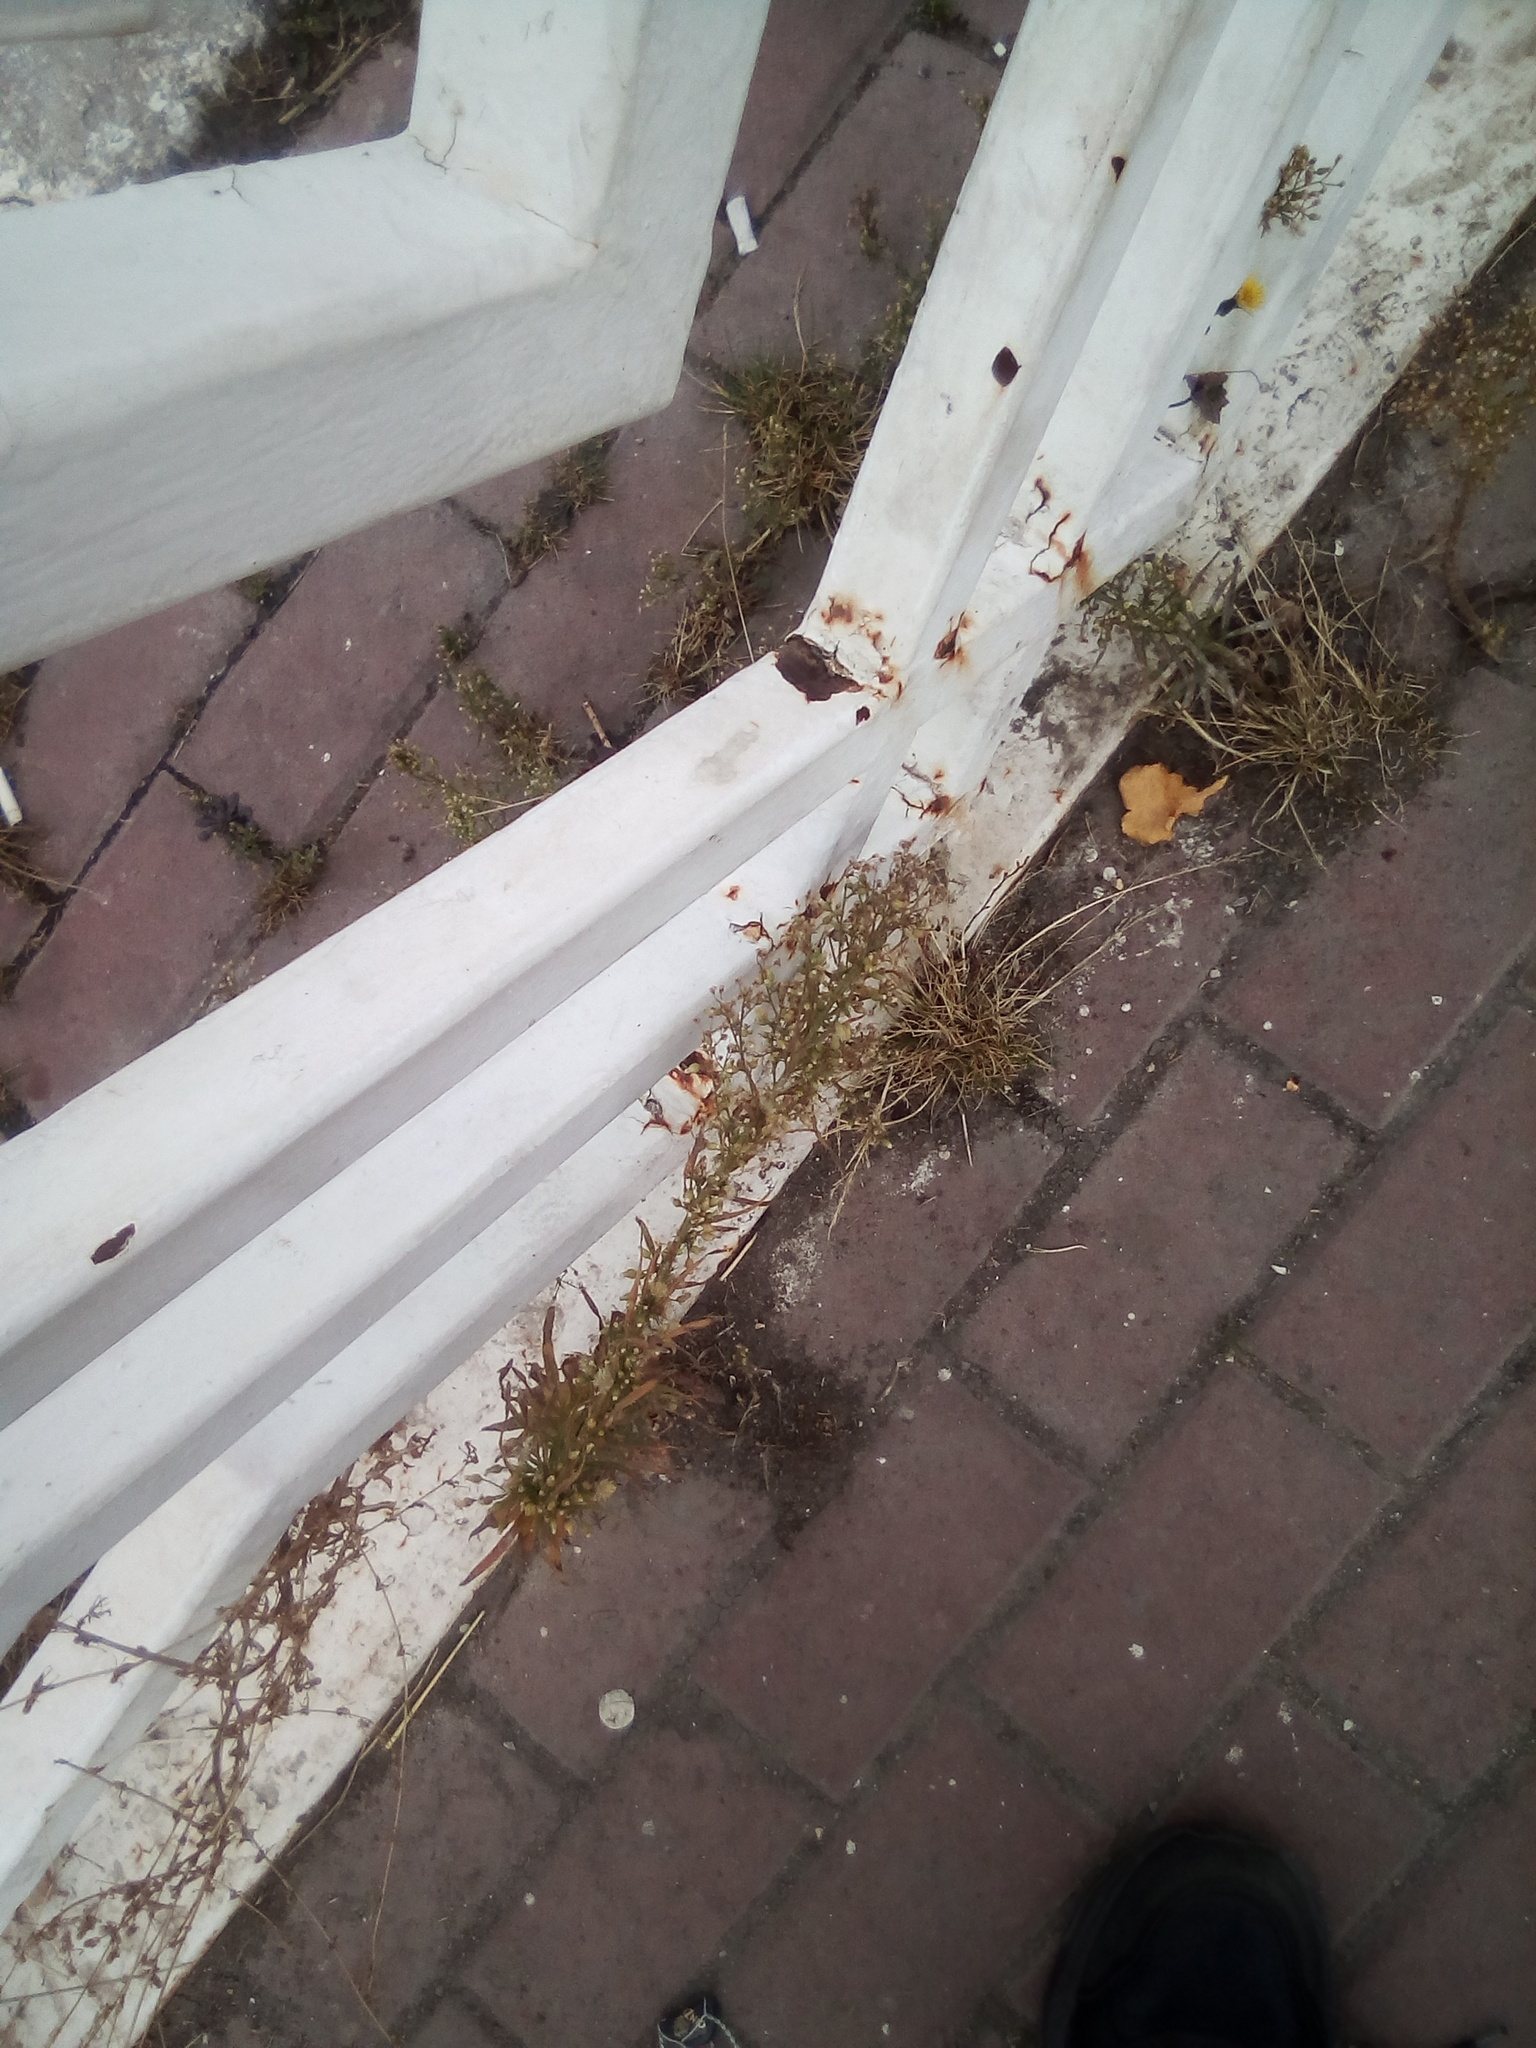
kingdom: Plantae
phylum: Tracheophyta
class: Magnoliopsida
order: Asterales
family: Asteraceae
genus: Erigeron
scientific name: Erigeron canadensis
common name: Canadian fleabane
